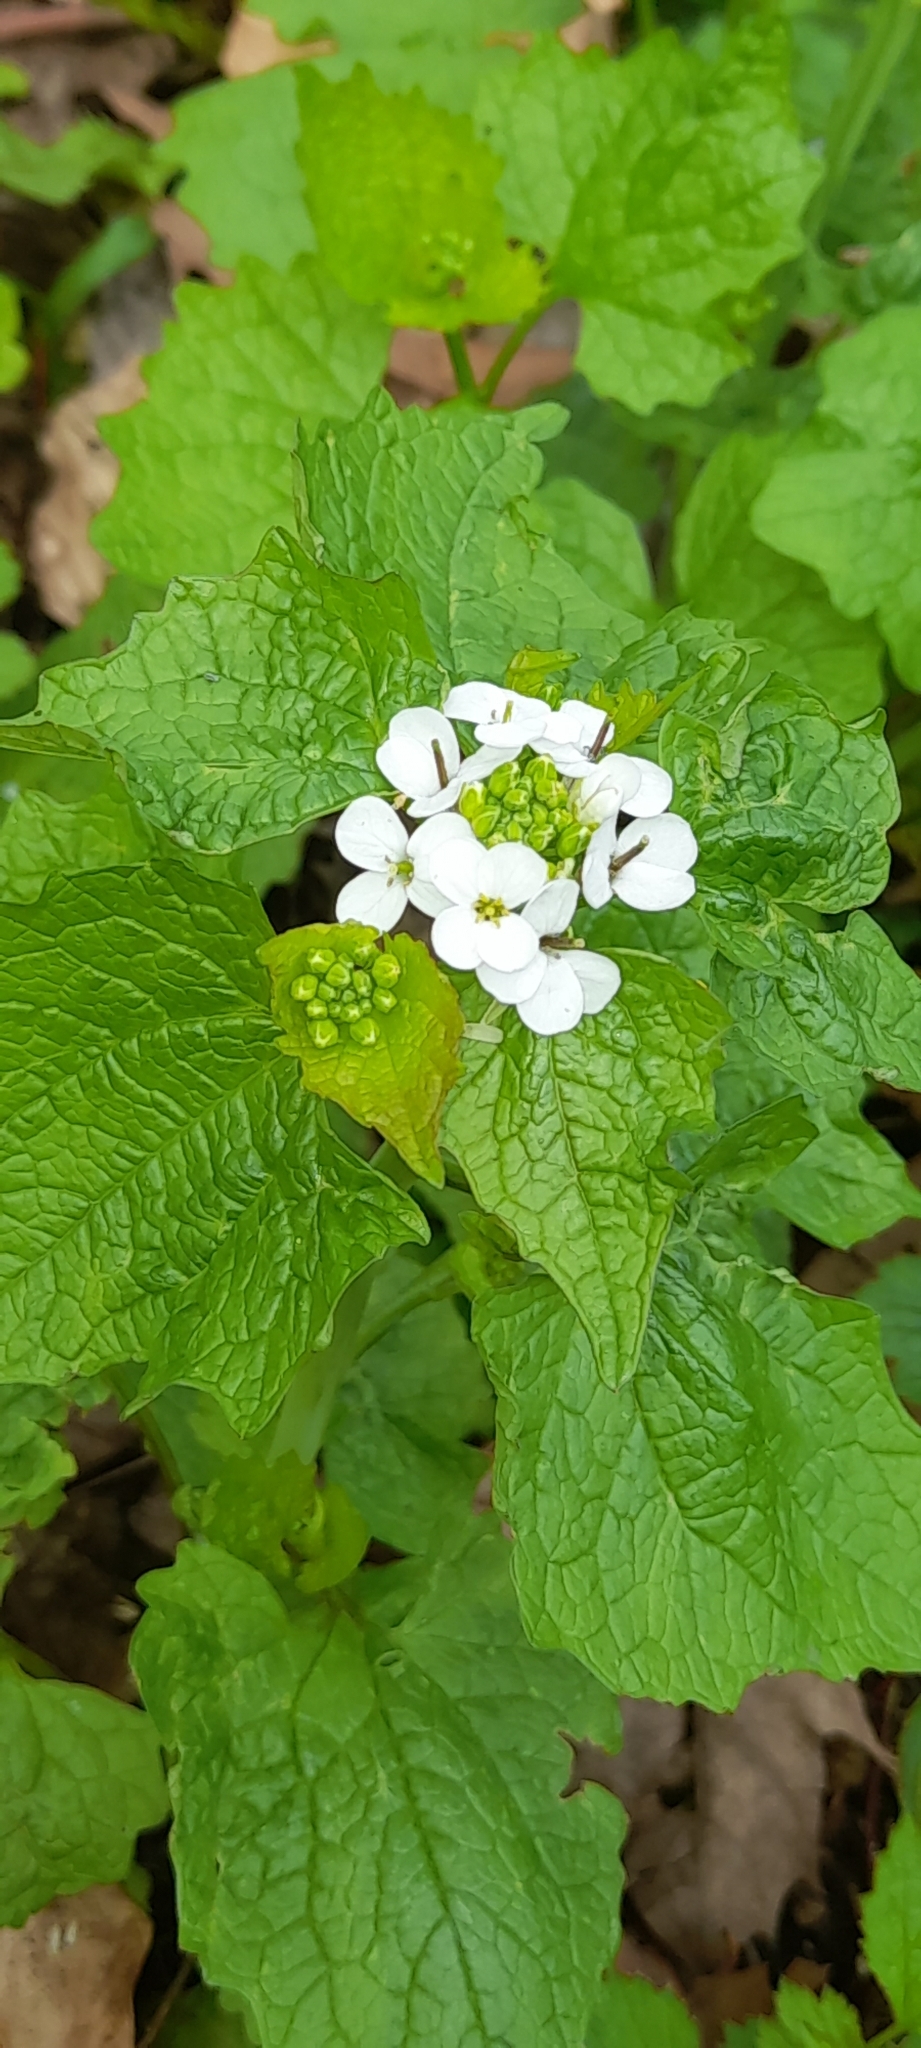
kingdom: Plantae
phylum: Tracheophyta
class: Magnoliopsida
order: Brassicales
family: Brassicaceae
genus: Alliaria
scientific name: Alliaria petiolata
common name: Garlic mustard
